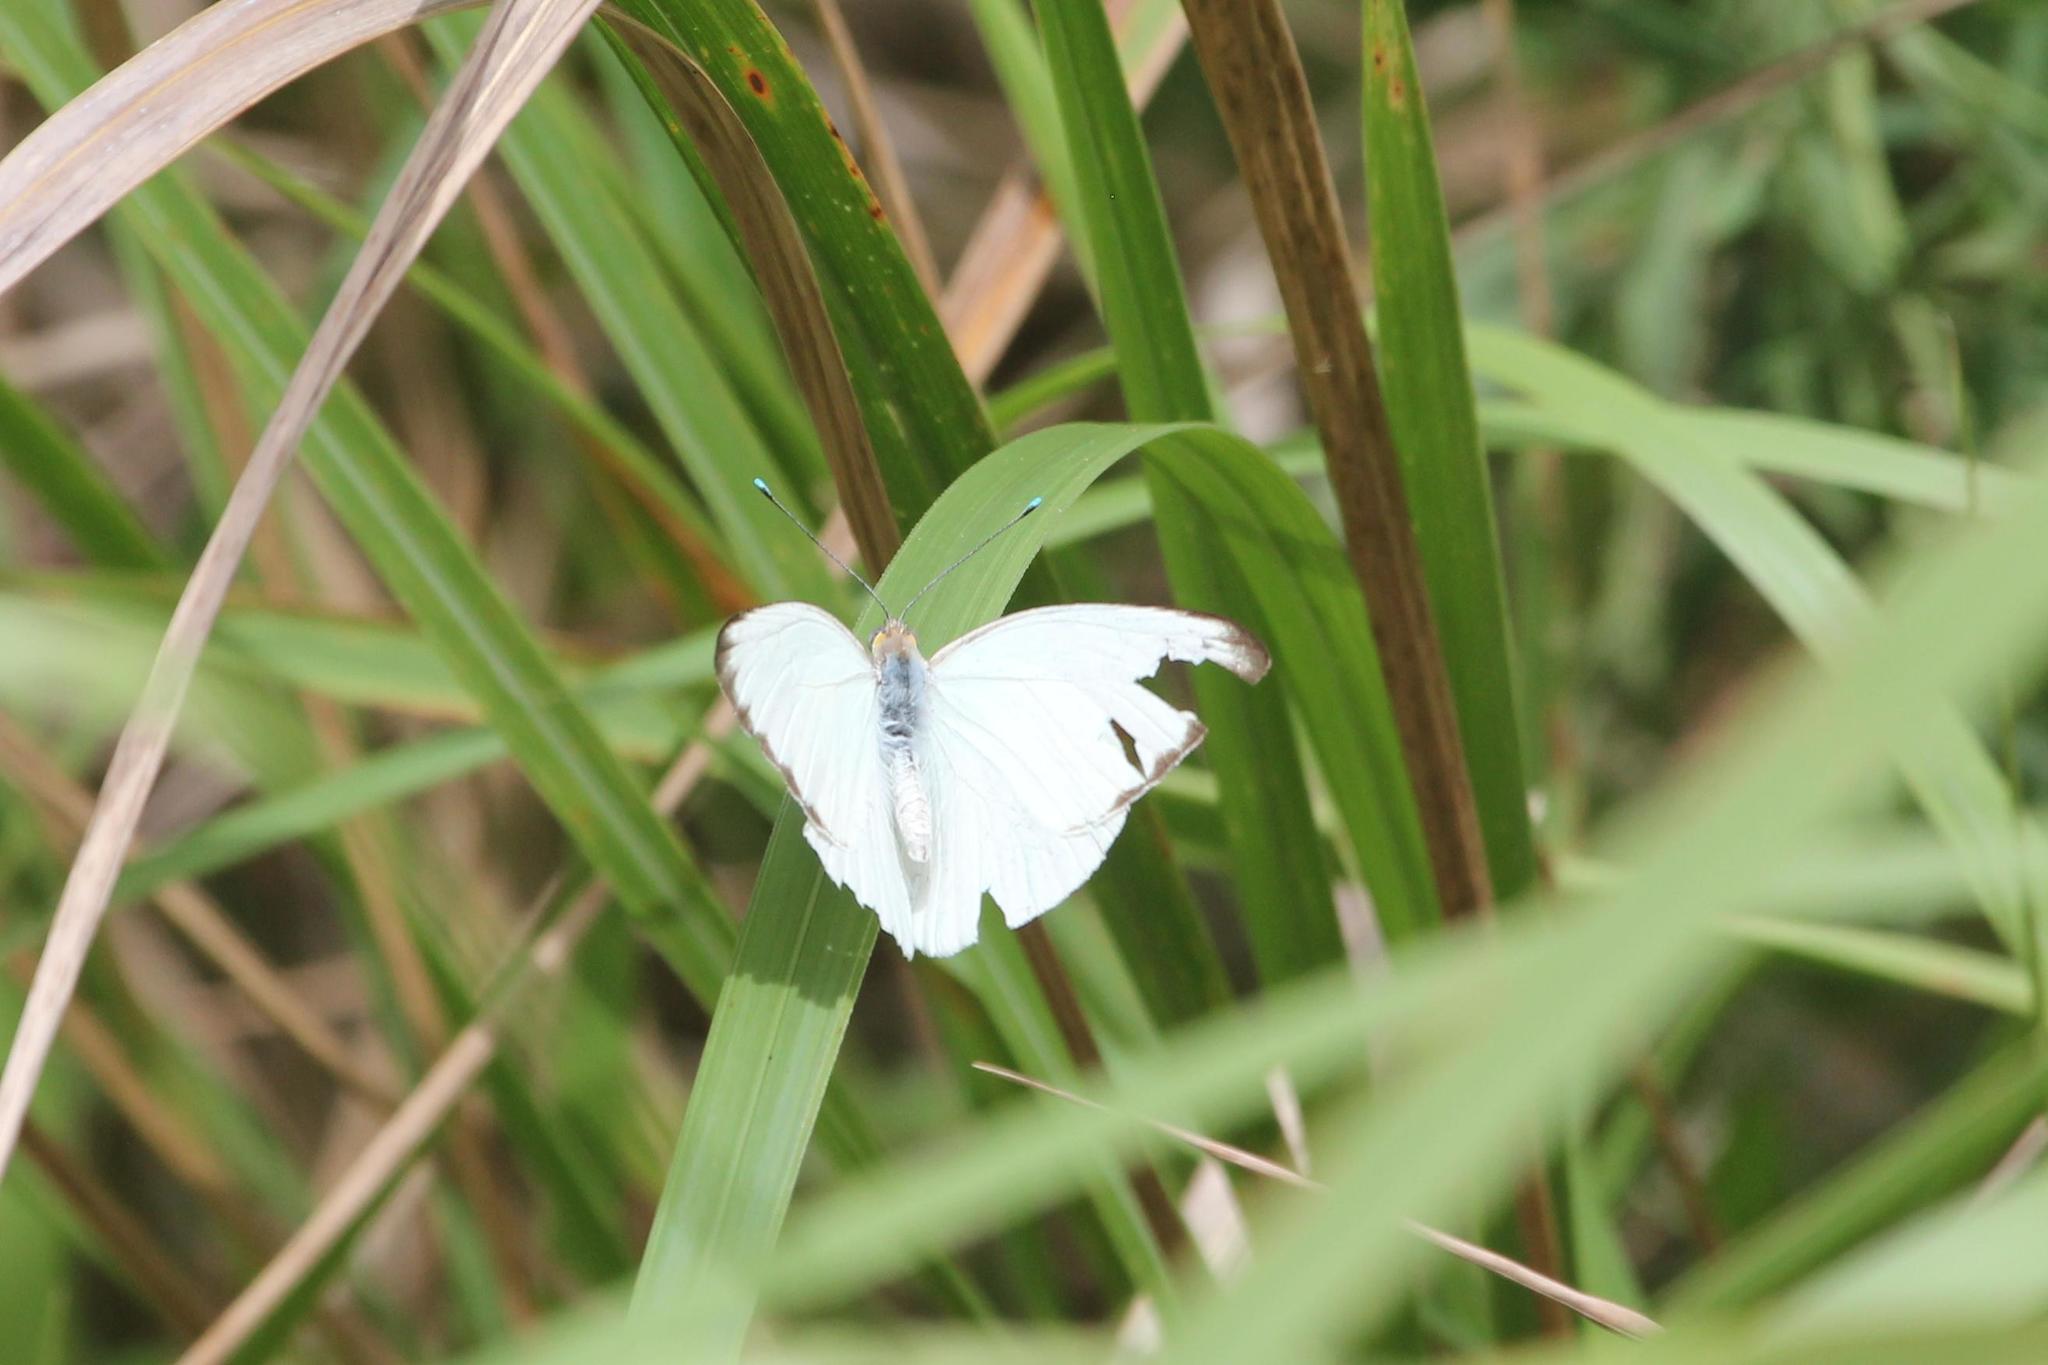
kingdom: Animalia
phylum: Arthropoda
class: Insecta
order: Lepidoptera
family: Pieridae
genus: Ascia
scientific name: Ascia monuste
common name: Great southern white
